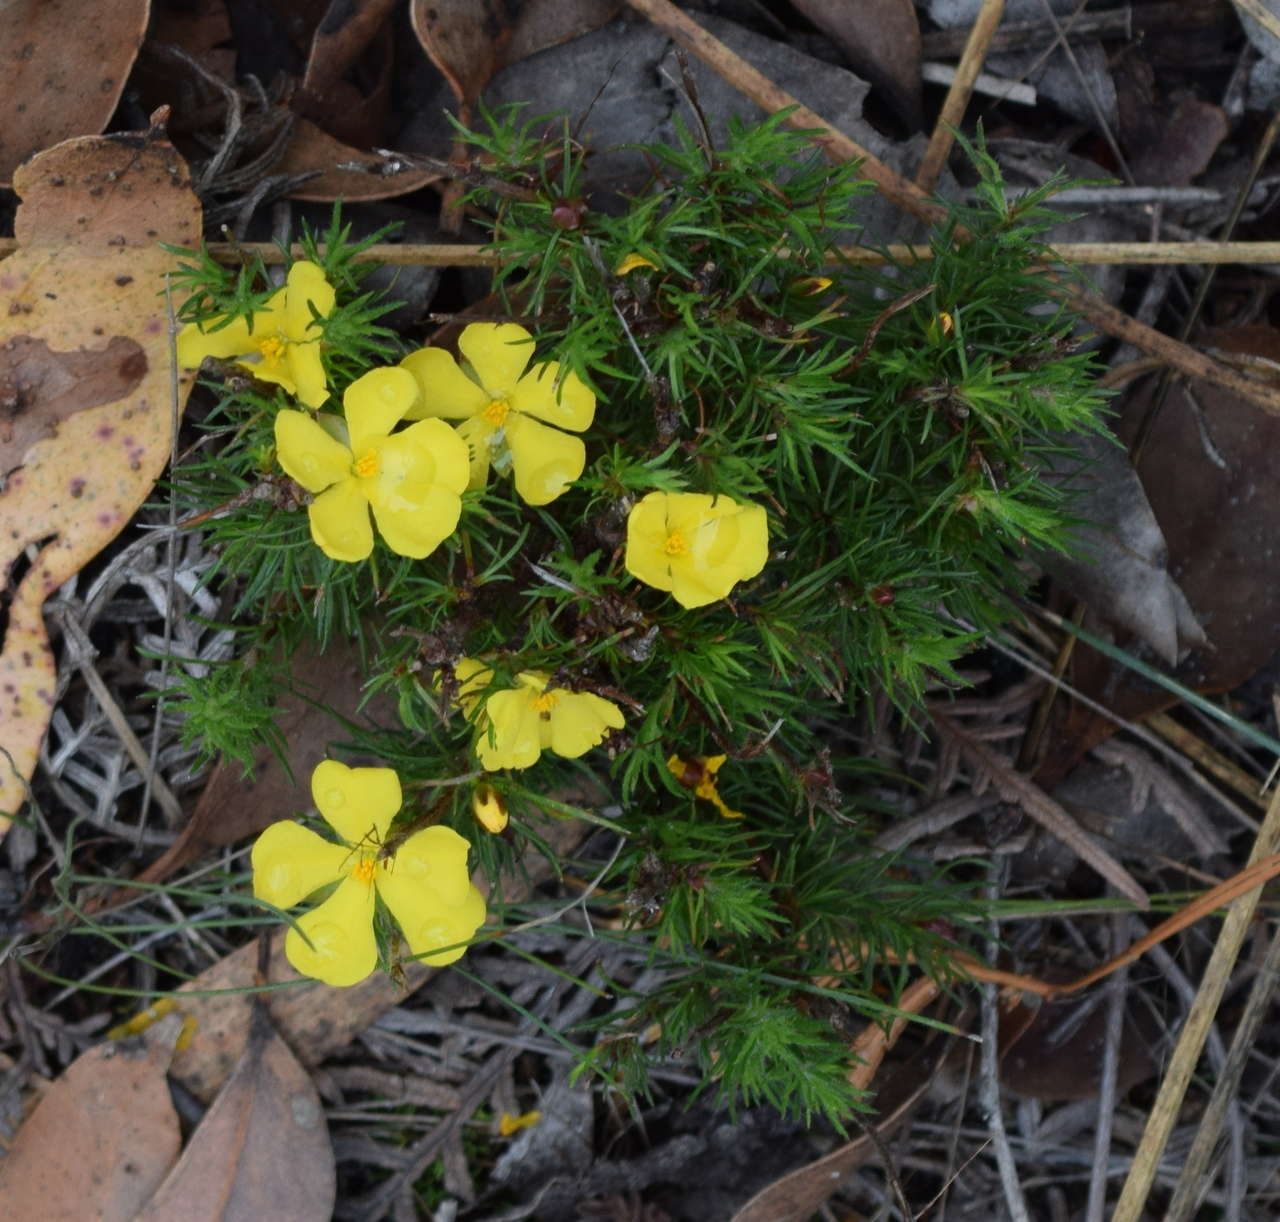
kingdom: Plantae
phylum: Tracheophyta
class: Magnoliopsida
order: Dilleniales
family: Dilleniaceae
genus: Hibbertia
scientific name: Hibbertia prostrata
